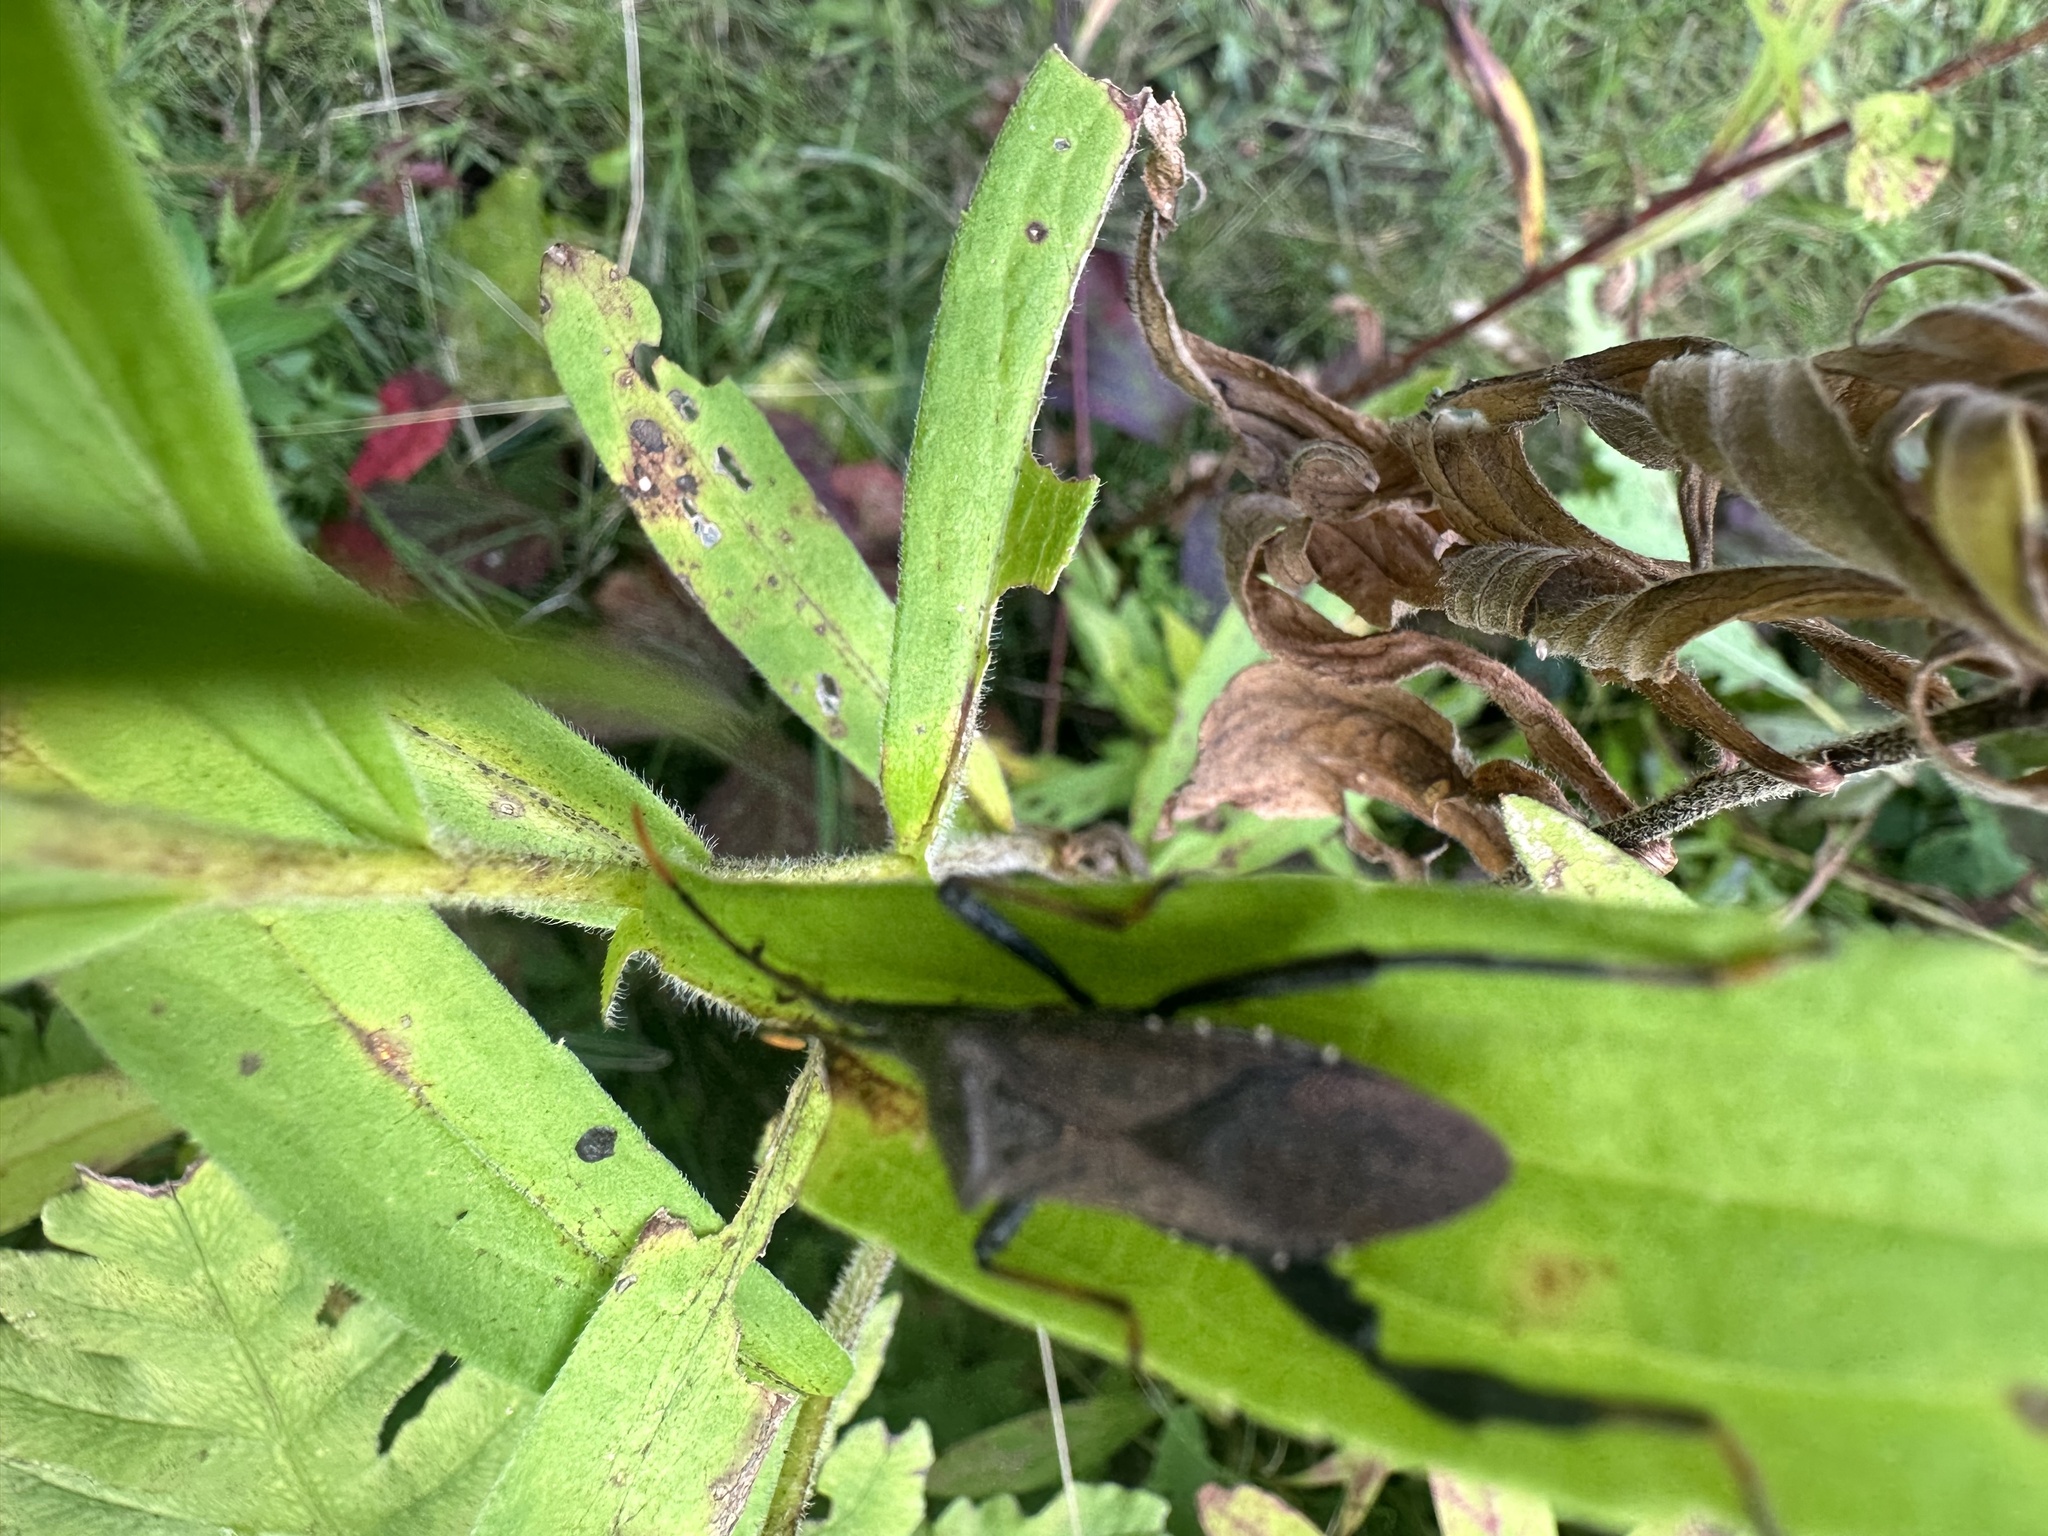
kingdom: Animalia
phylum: Arthropoda
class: Insecta
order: Hemiptera
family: Coreidae
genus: Acanthocephala
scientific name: Acanthocephala terminalis
